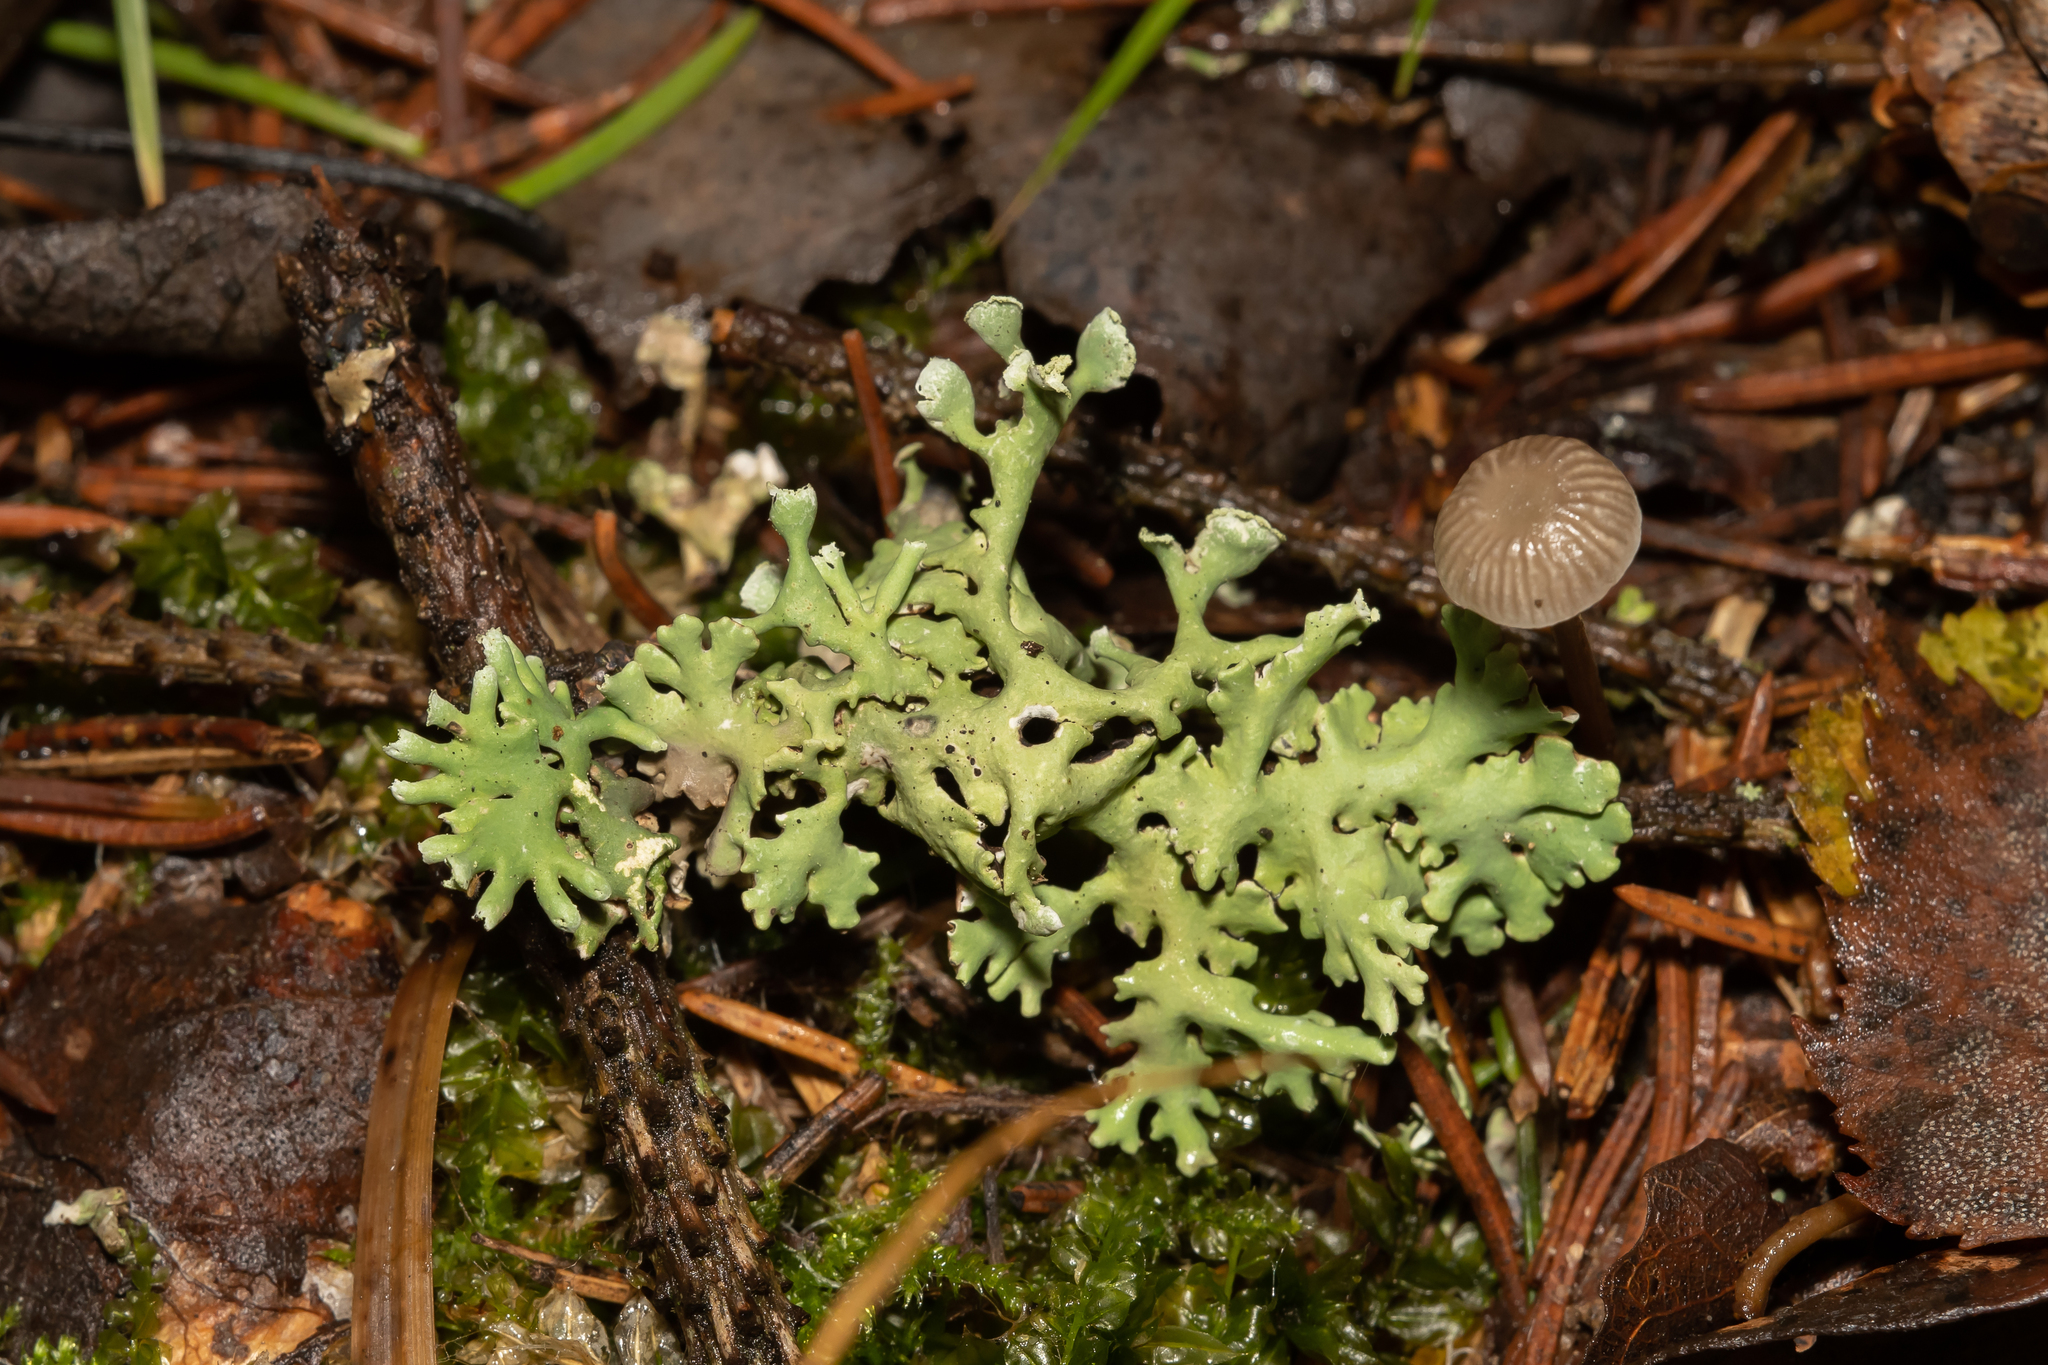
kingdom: Fungi
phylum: Ascomycota
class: Lecanoromycetes
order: Lecanorales
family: Parmeliaceae
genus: Hypogymnia
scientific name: Hypogymnia physodes
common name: Dark crottle
